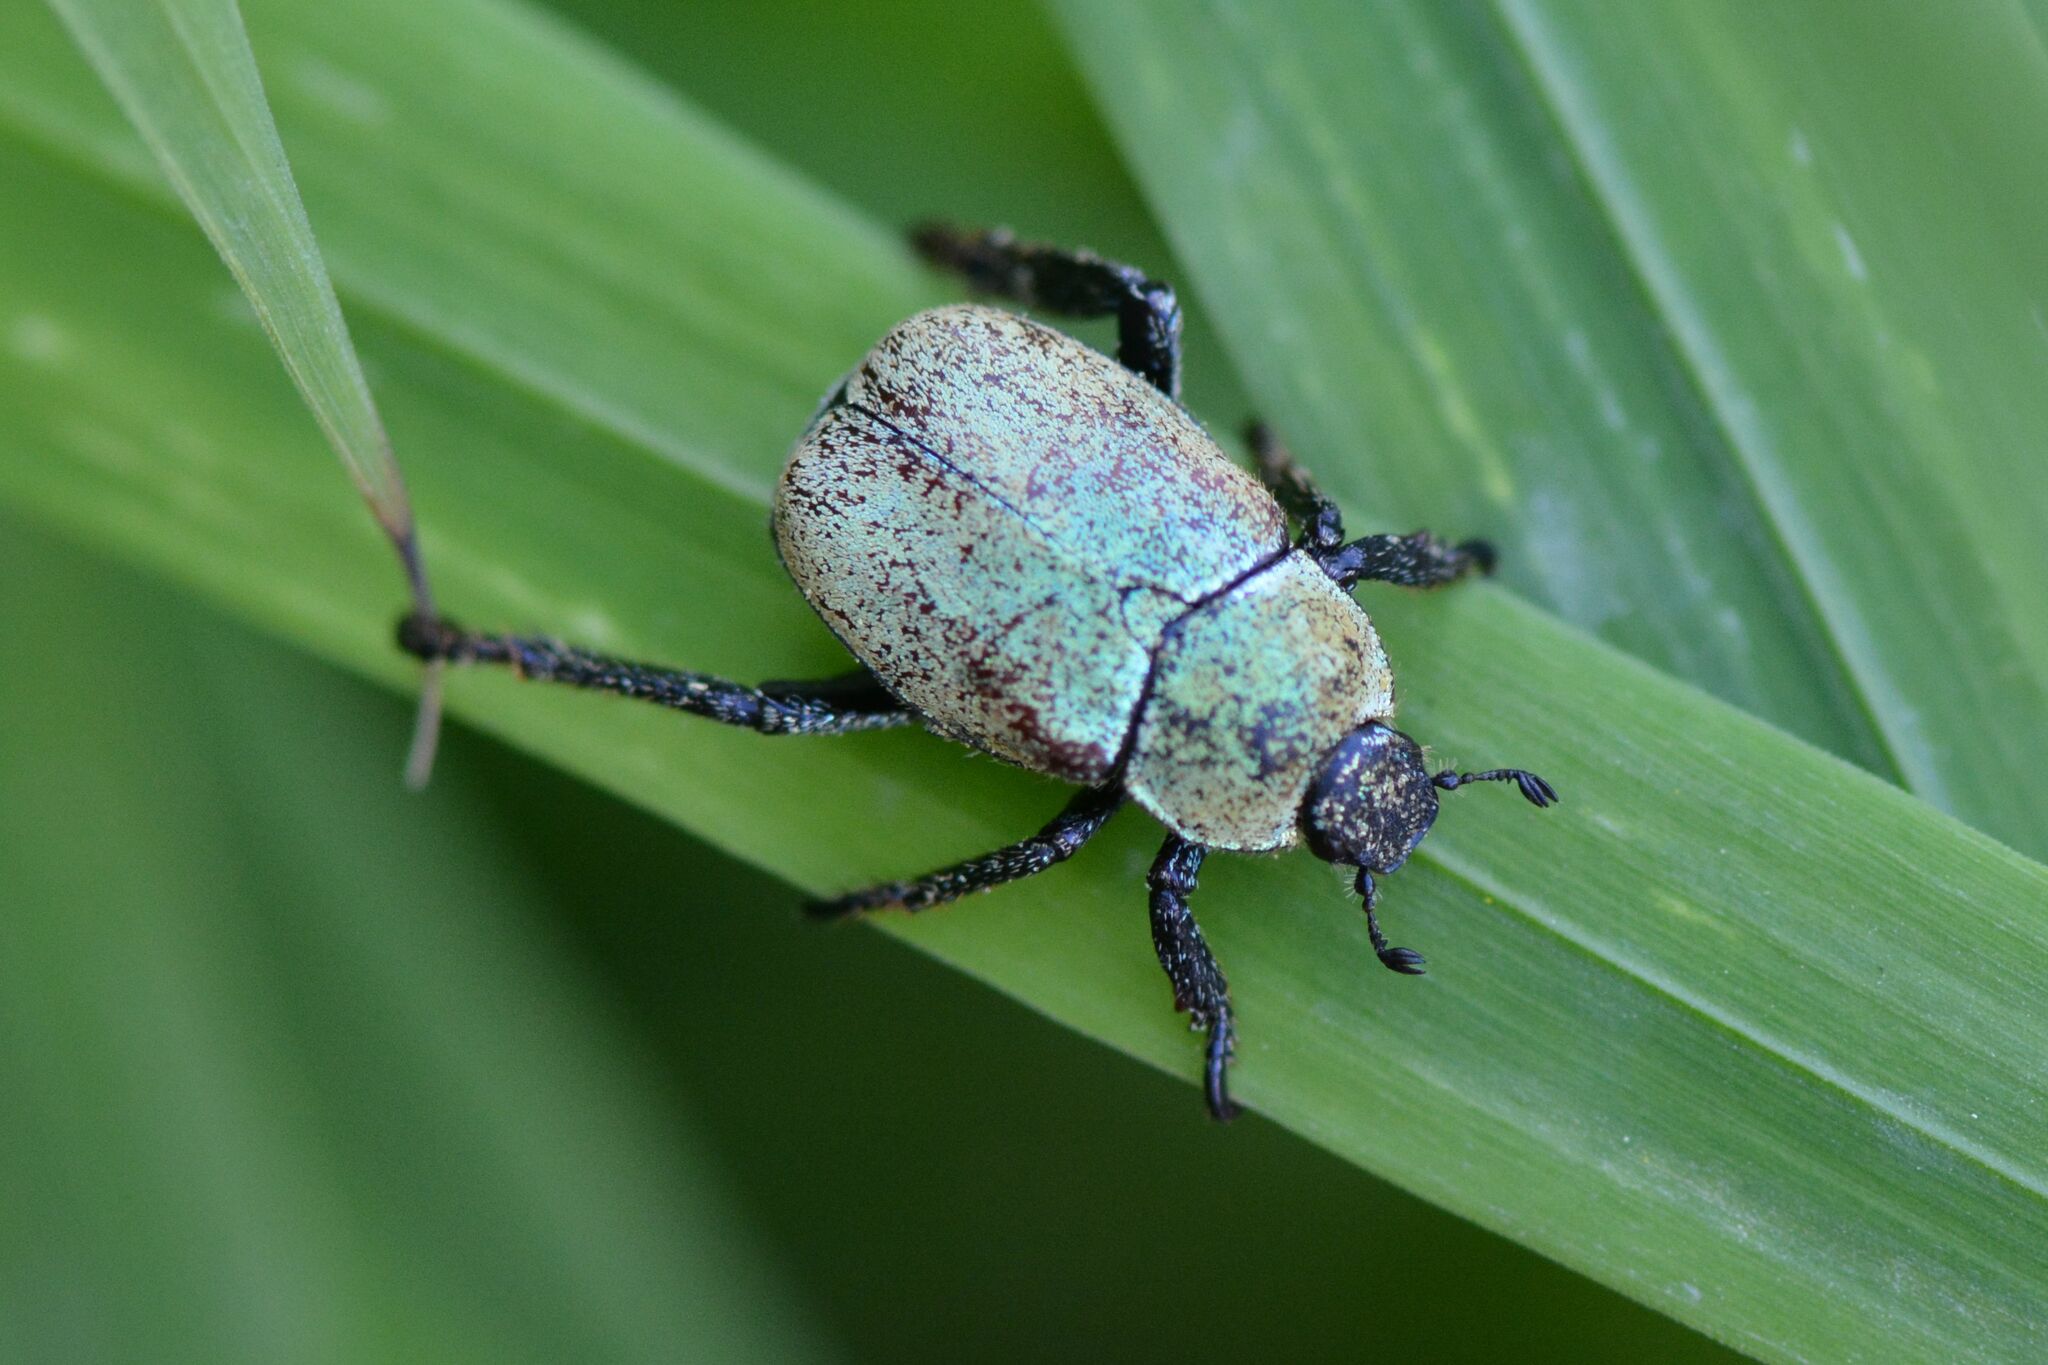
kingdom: Animalia
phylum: Arthropoda
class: Insecta
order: Coleoptera
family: Scarabaeidae
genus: Hoplia
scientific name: Hoplia argentea
